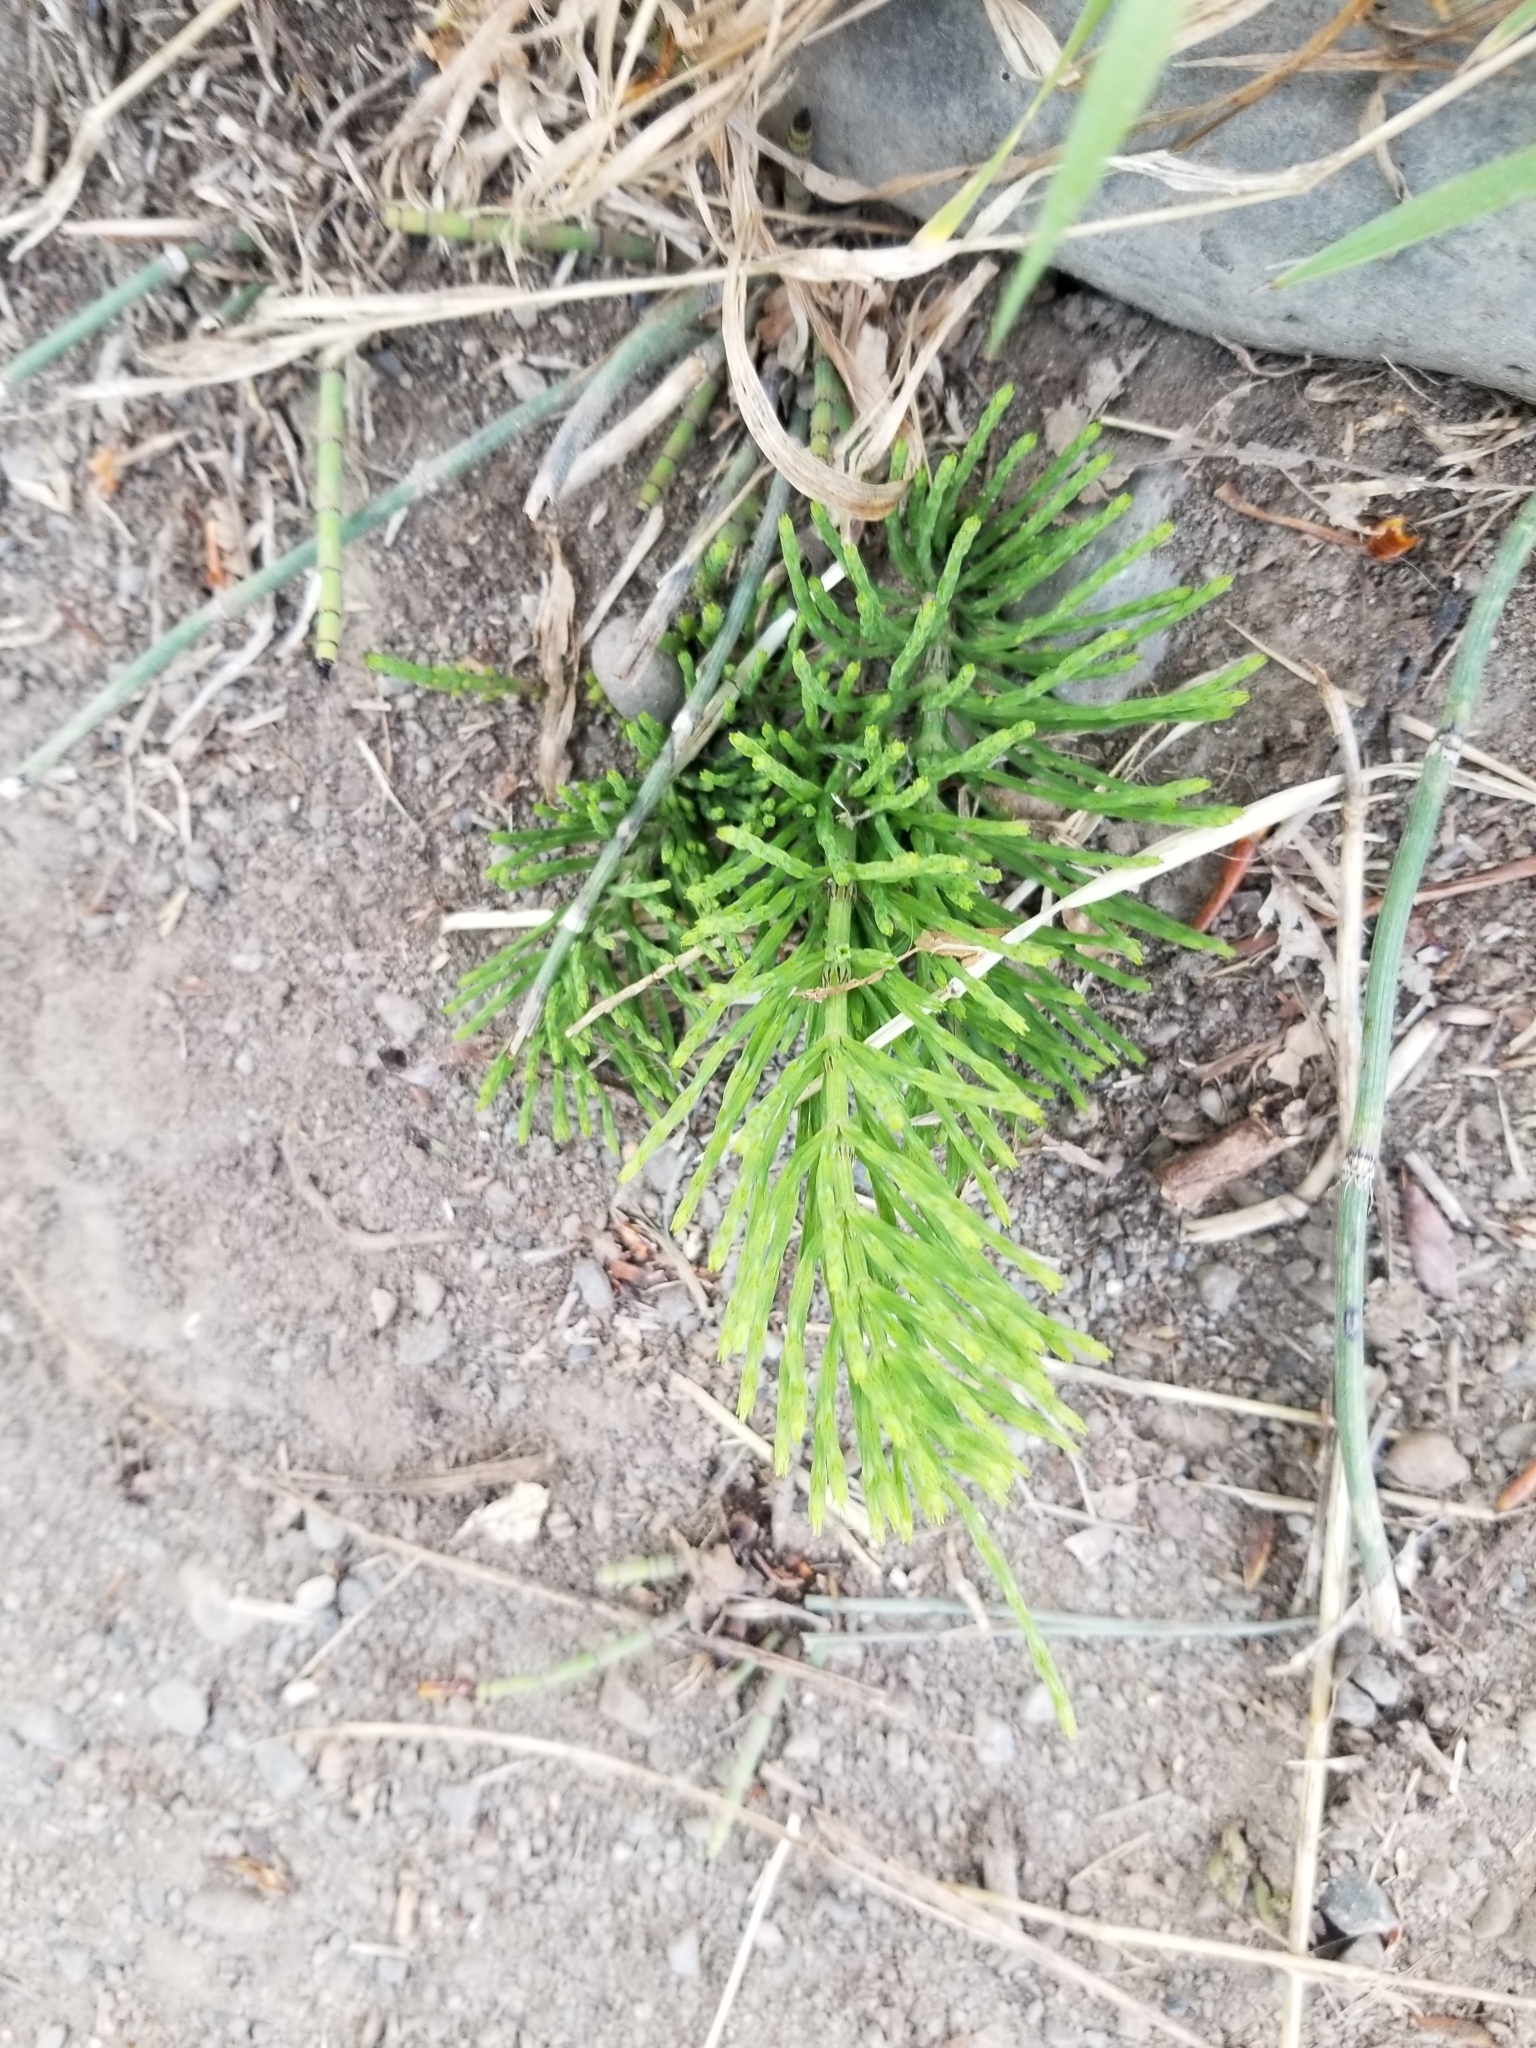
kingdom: Plantae
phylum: Tracheophyta
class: Polypodiopsida
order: Equisetales
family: Equisetaceae
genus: Equisetum
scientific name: Equisetum arvense
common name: Field horsetail
